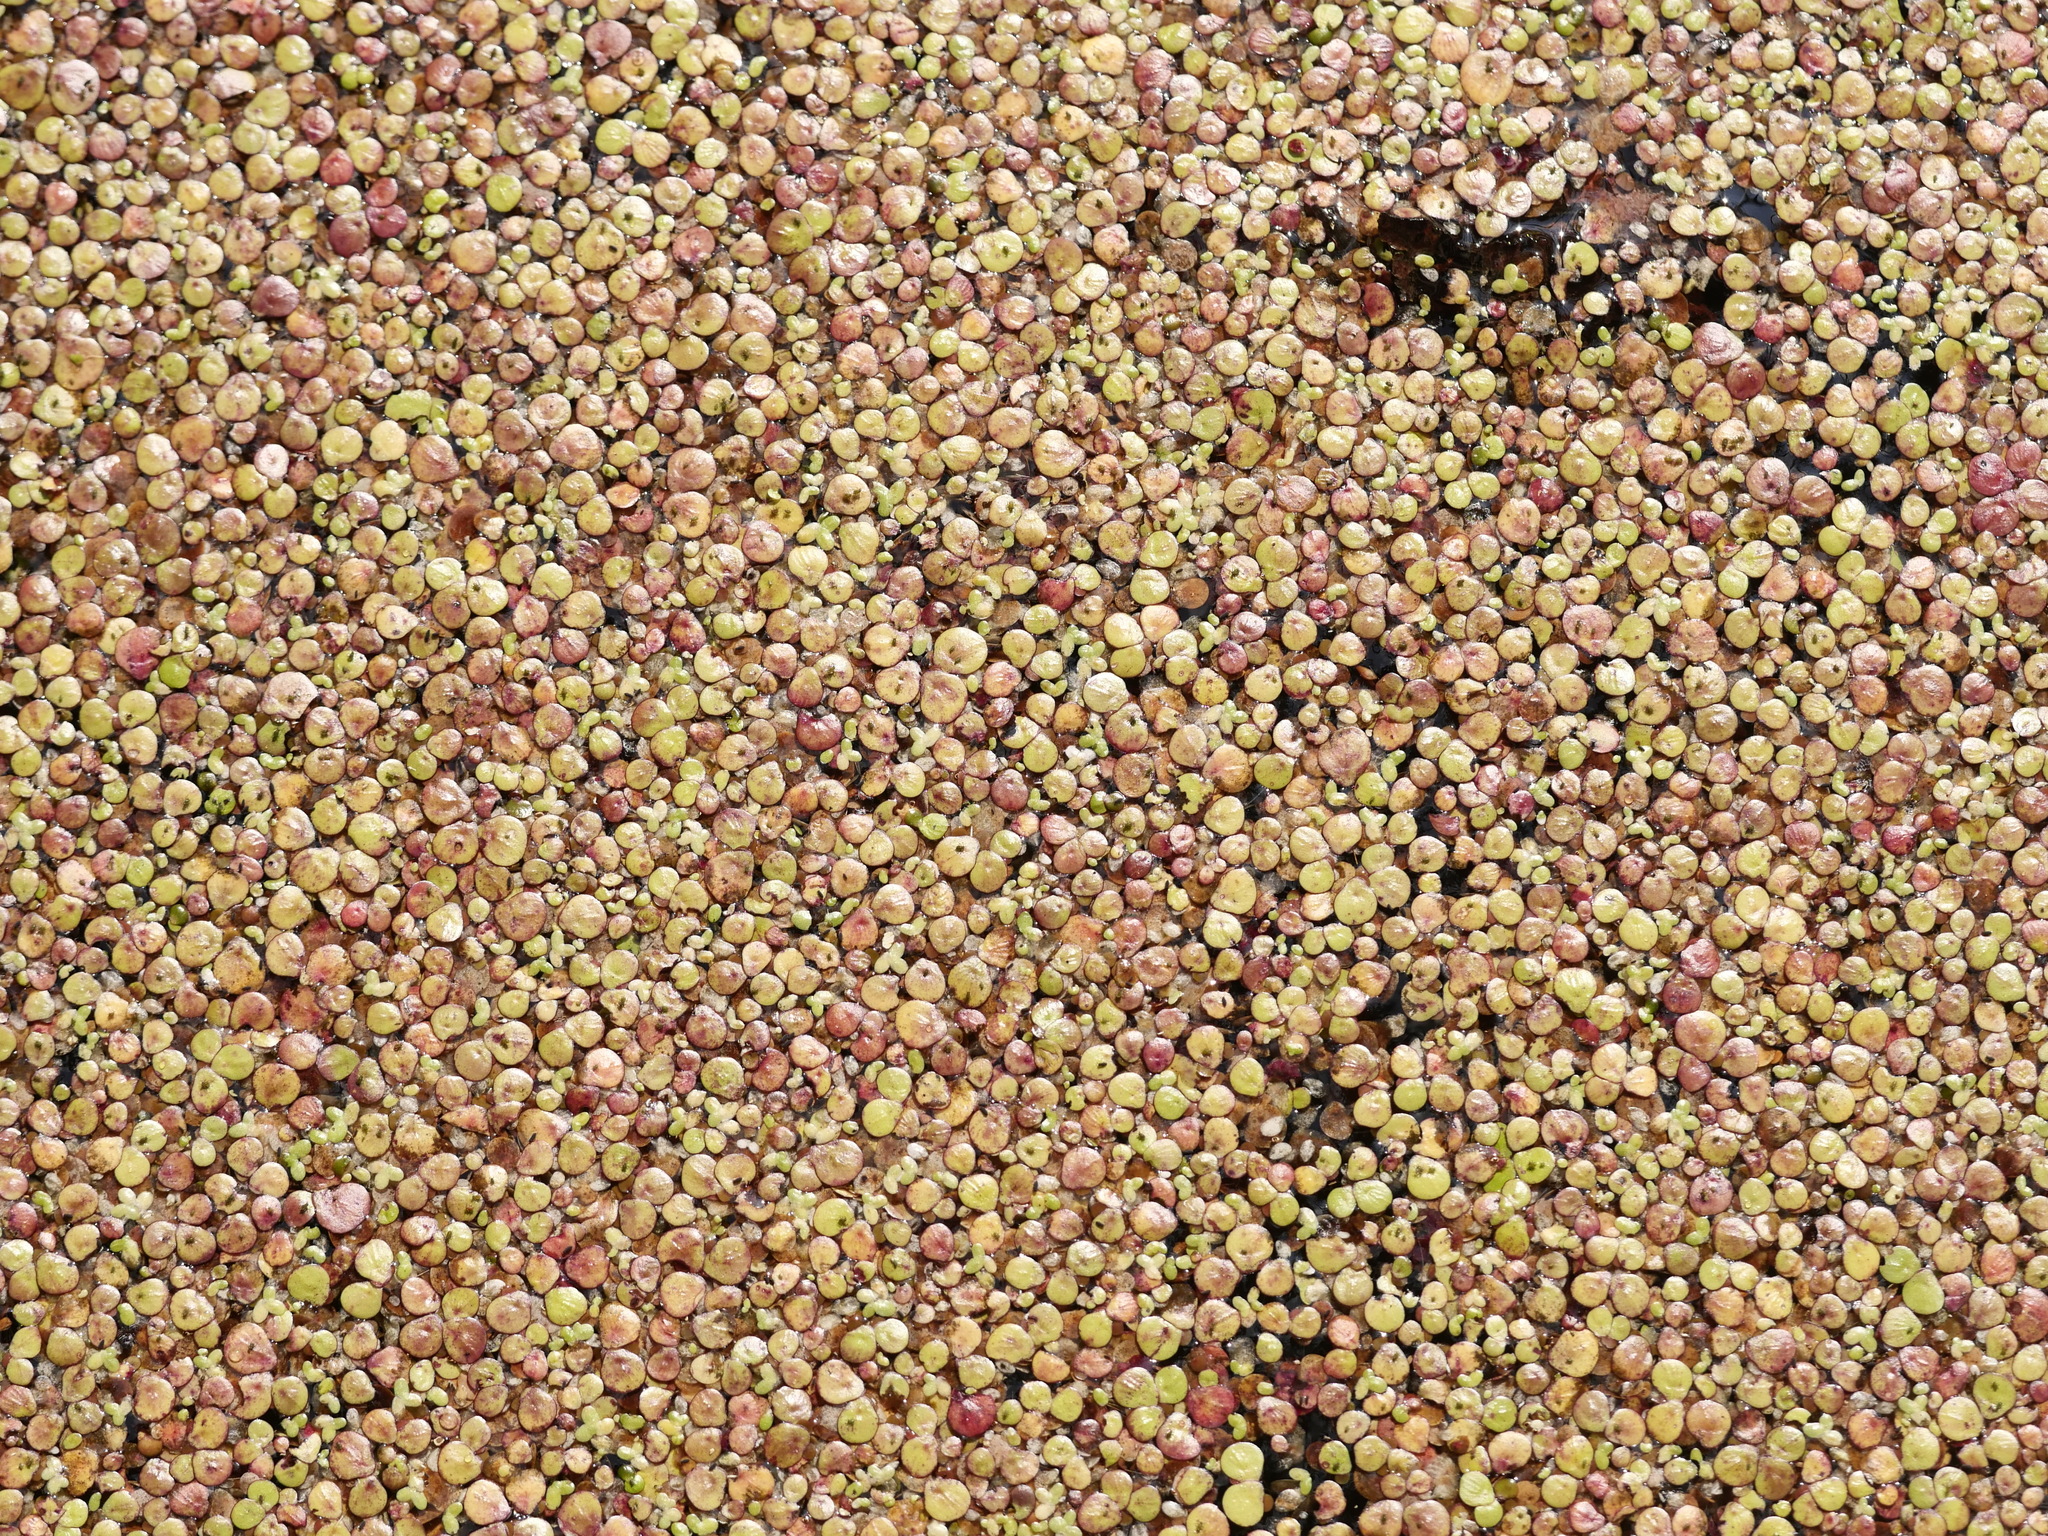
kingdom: Plantae
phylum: Tracheophyta
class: Liliopsida
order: Alismatales
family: Araceae
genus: Spirodela
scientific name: Spirodela polyrhiza
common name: Great duckweed
